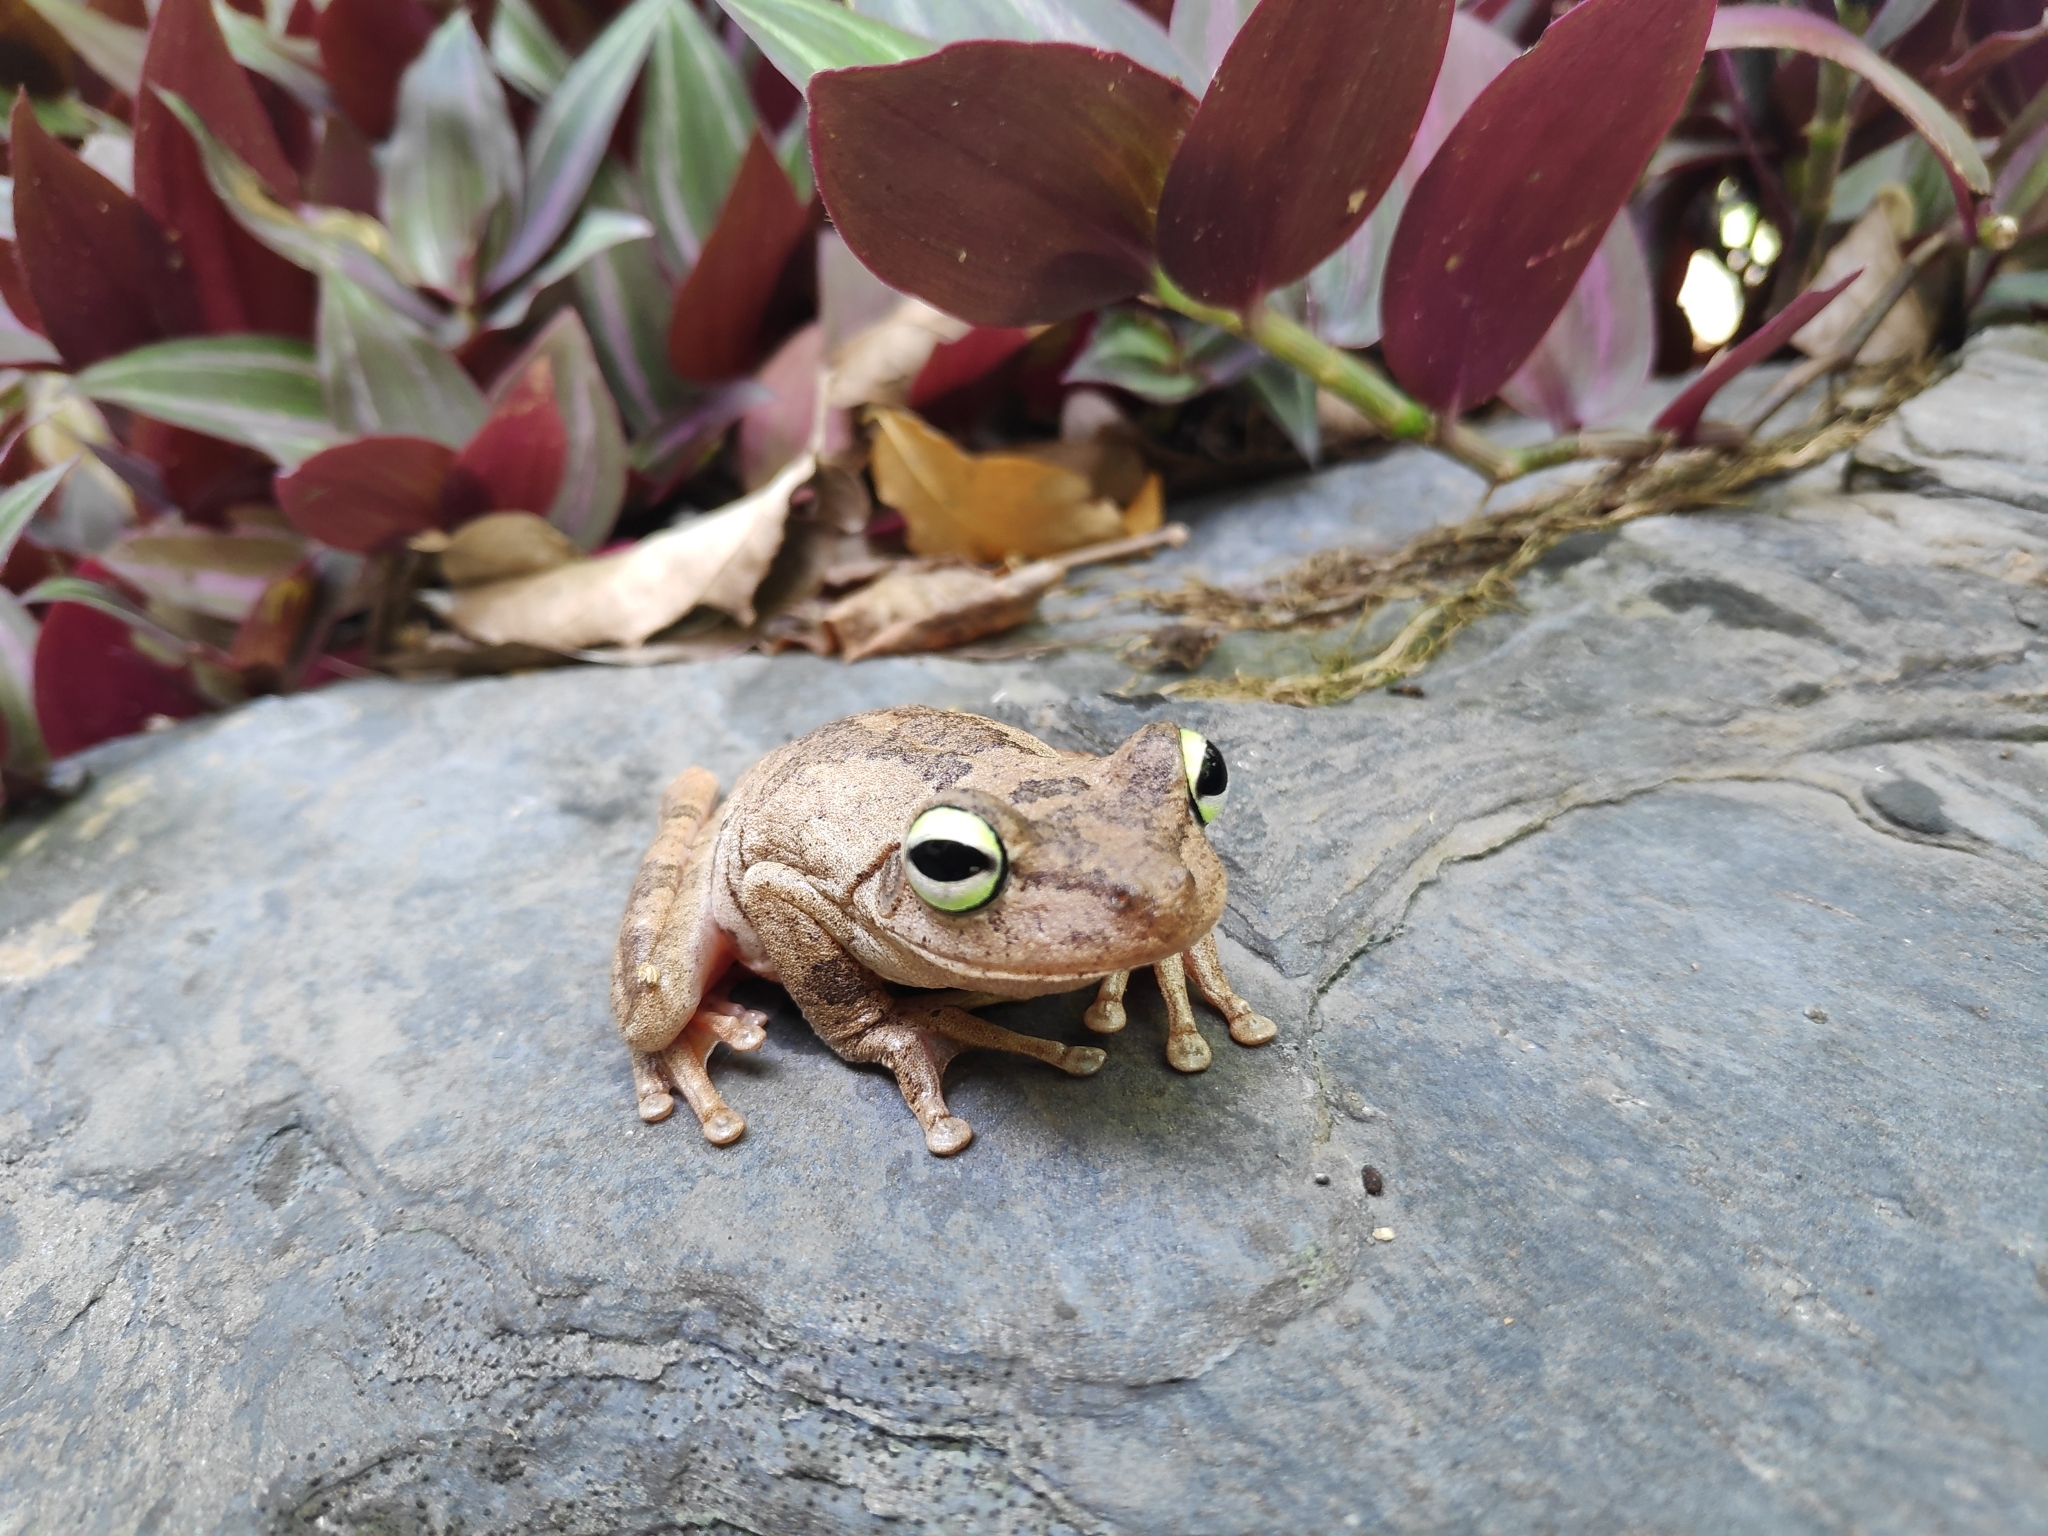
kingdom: Animalia
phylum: Chordata
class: Amphibia
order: Anura
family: Hylidae
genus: Boana
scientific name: Boana platanera
